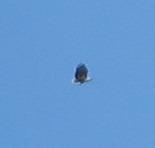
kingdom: Animalia
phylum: Chordata
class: Aves
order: Accipitriformes
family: Accipitridae
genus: Haliaeetus
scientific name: Haliaeetus vocifer
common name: African fish eagle
